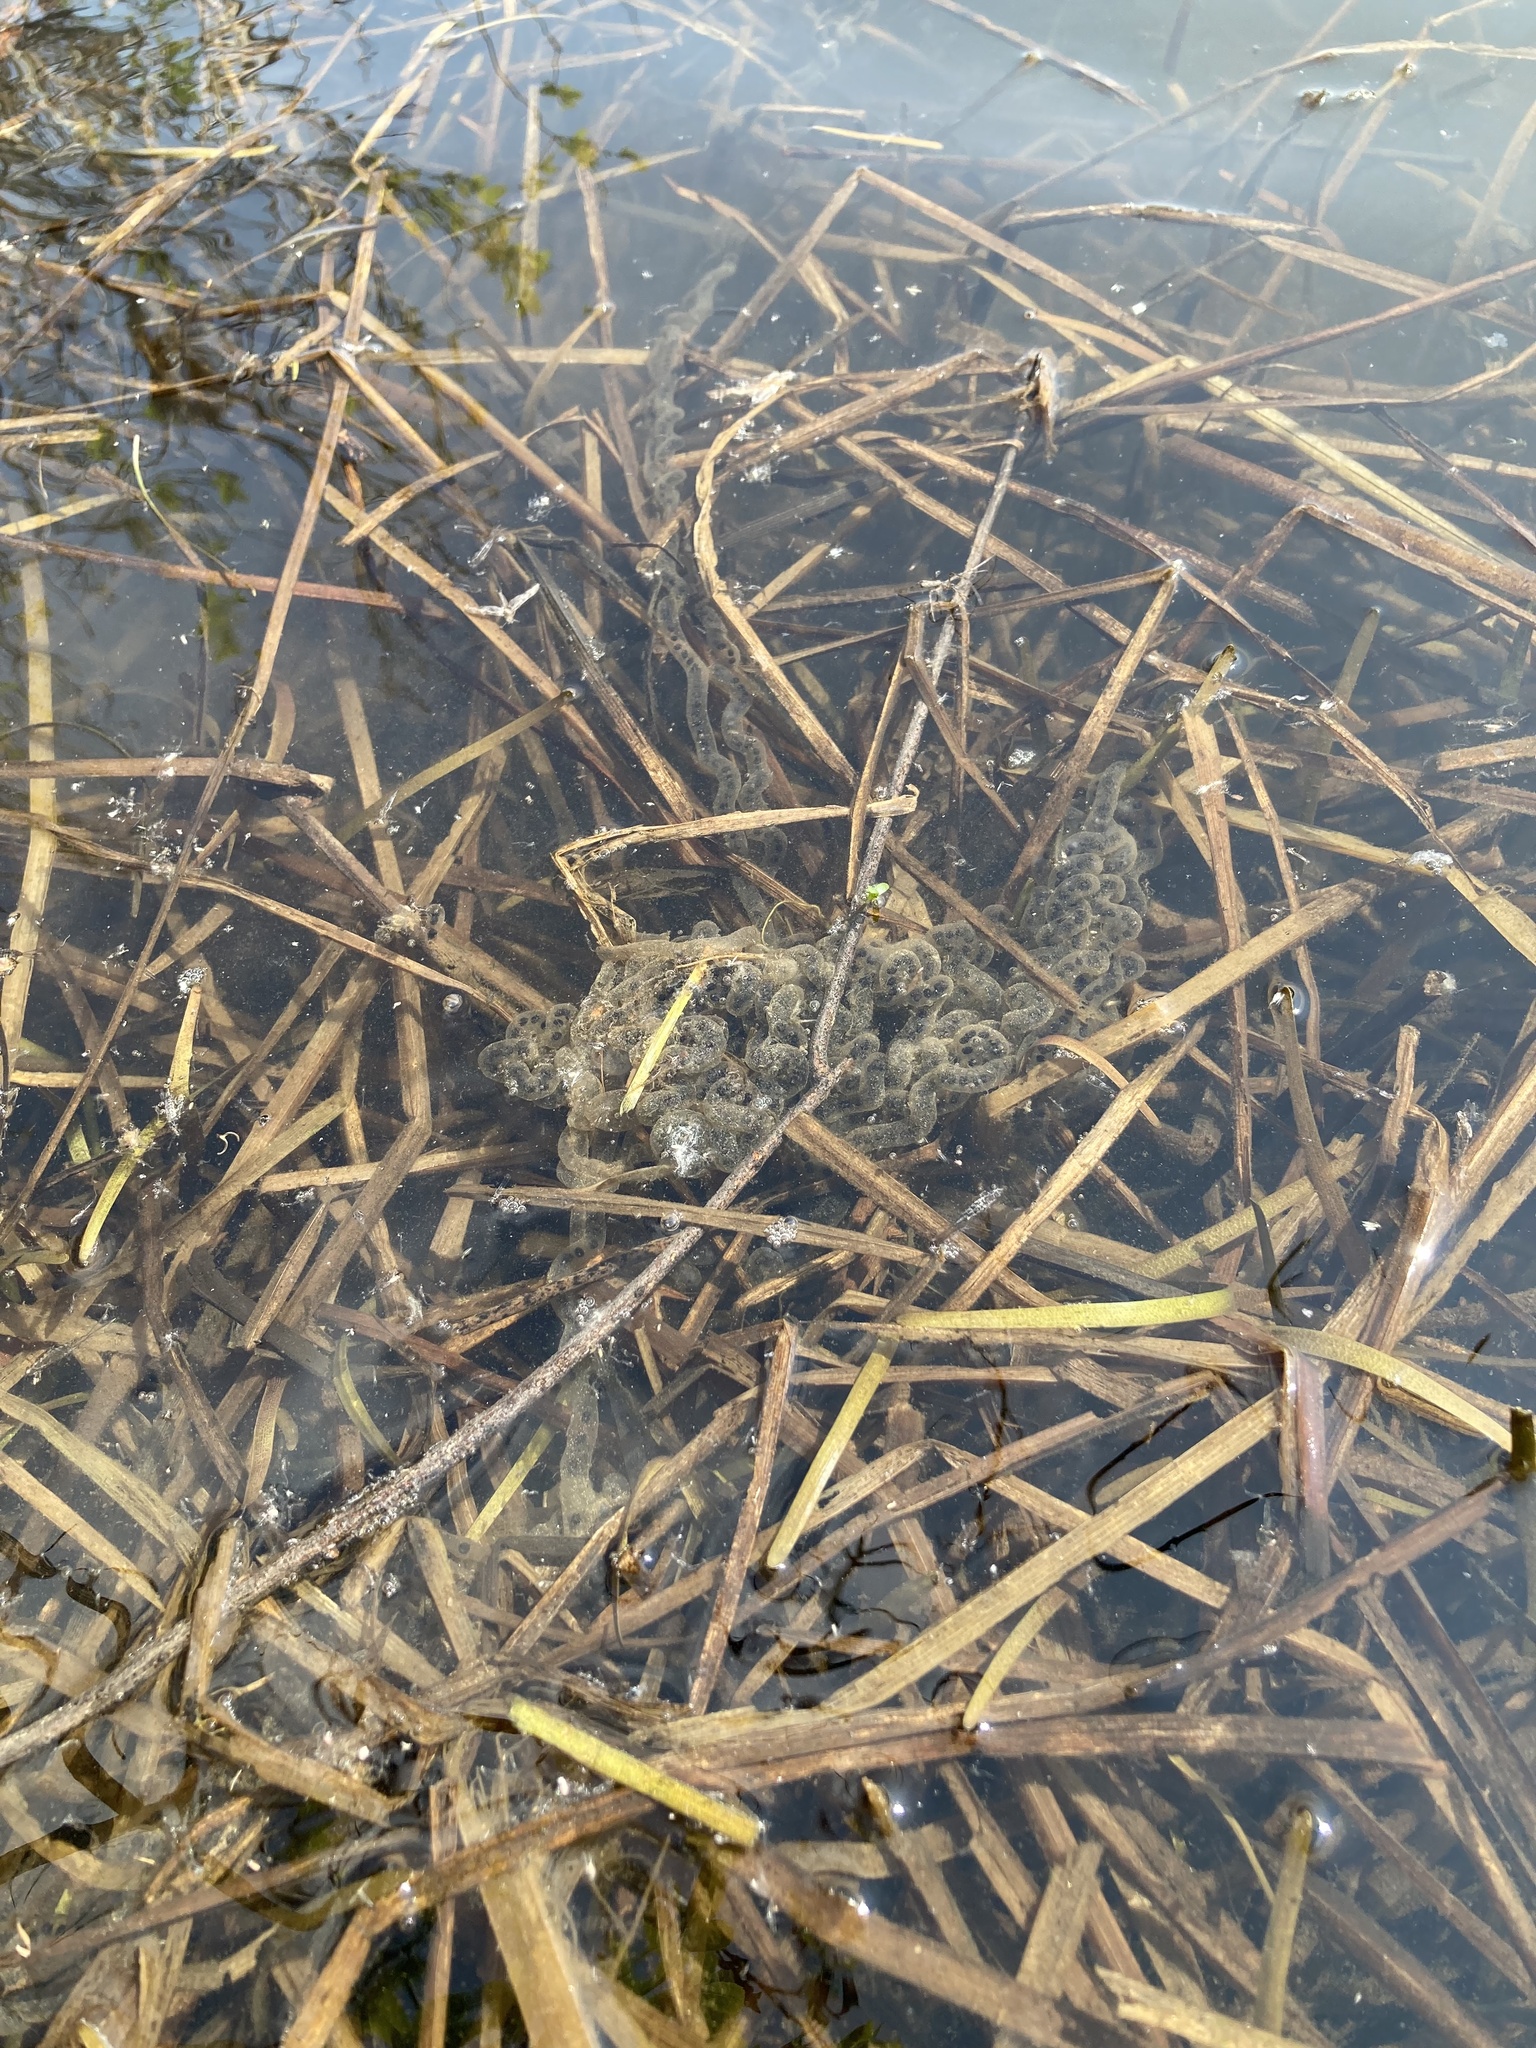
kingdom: Animalia
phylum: Chordata
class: Amphibia
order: Anura
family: Bufonidae
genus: Anaxyrus
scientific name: Anaxyrus americanus
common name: American toad
